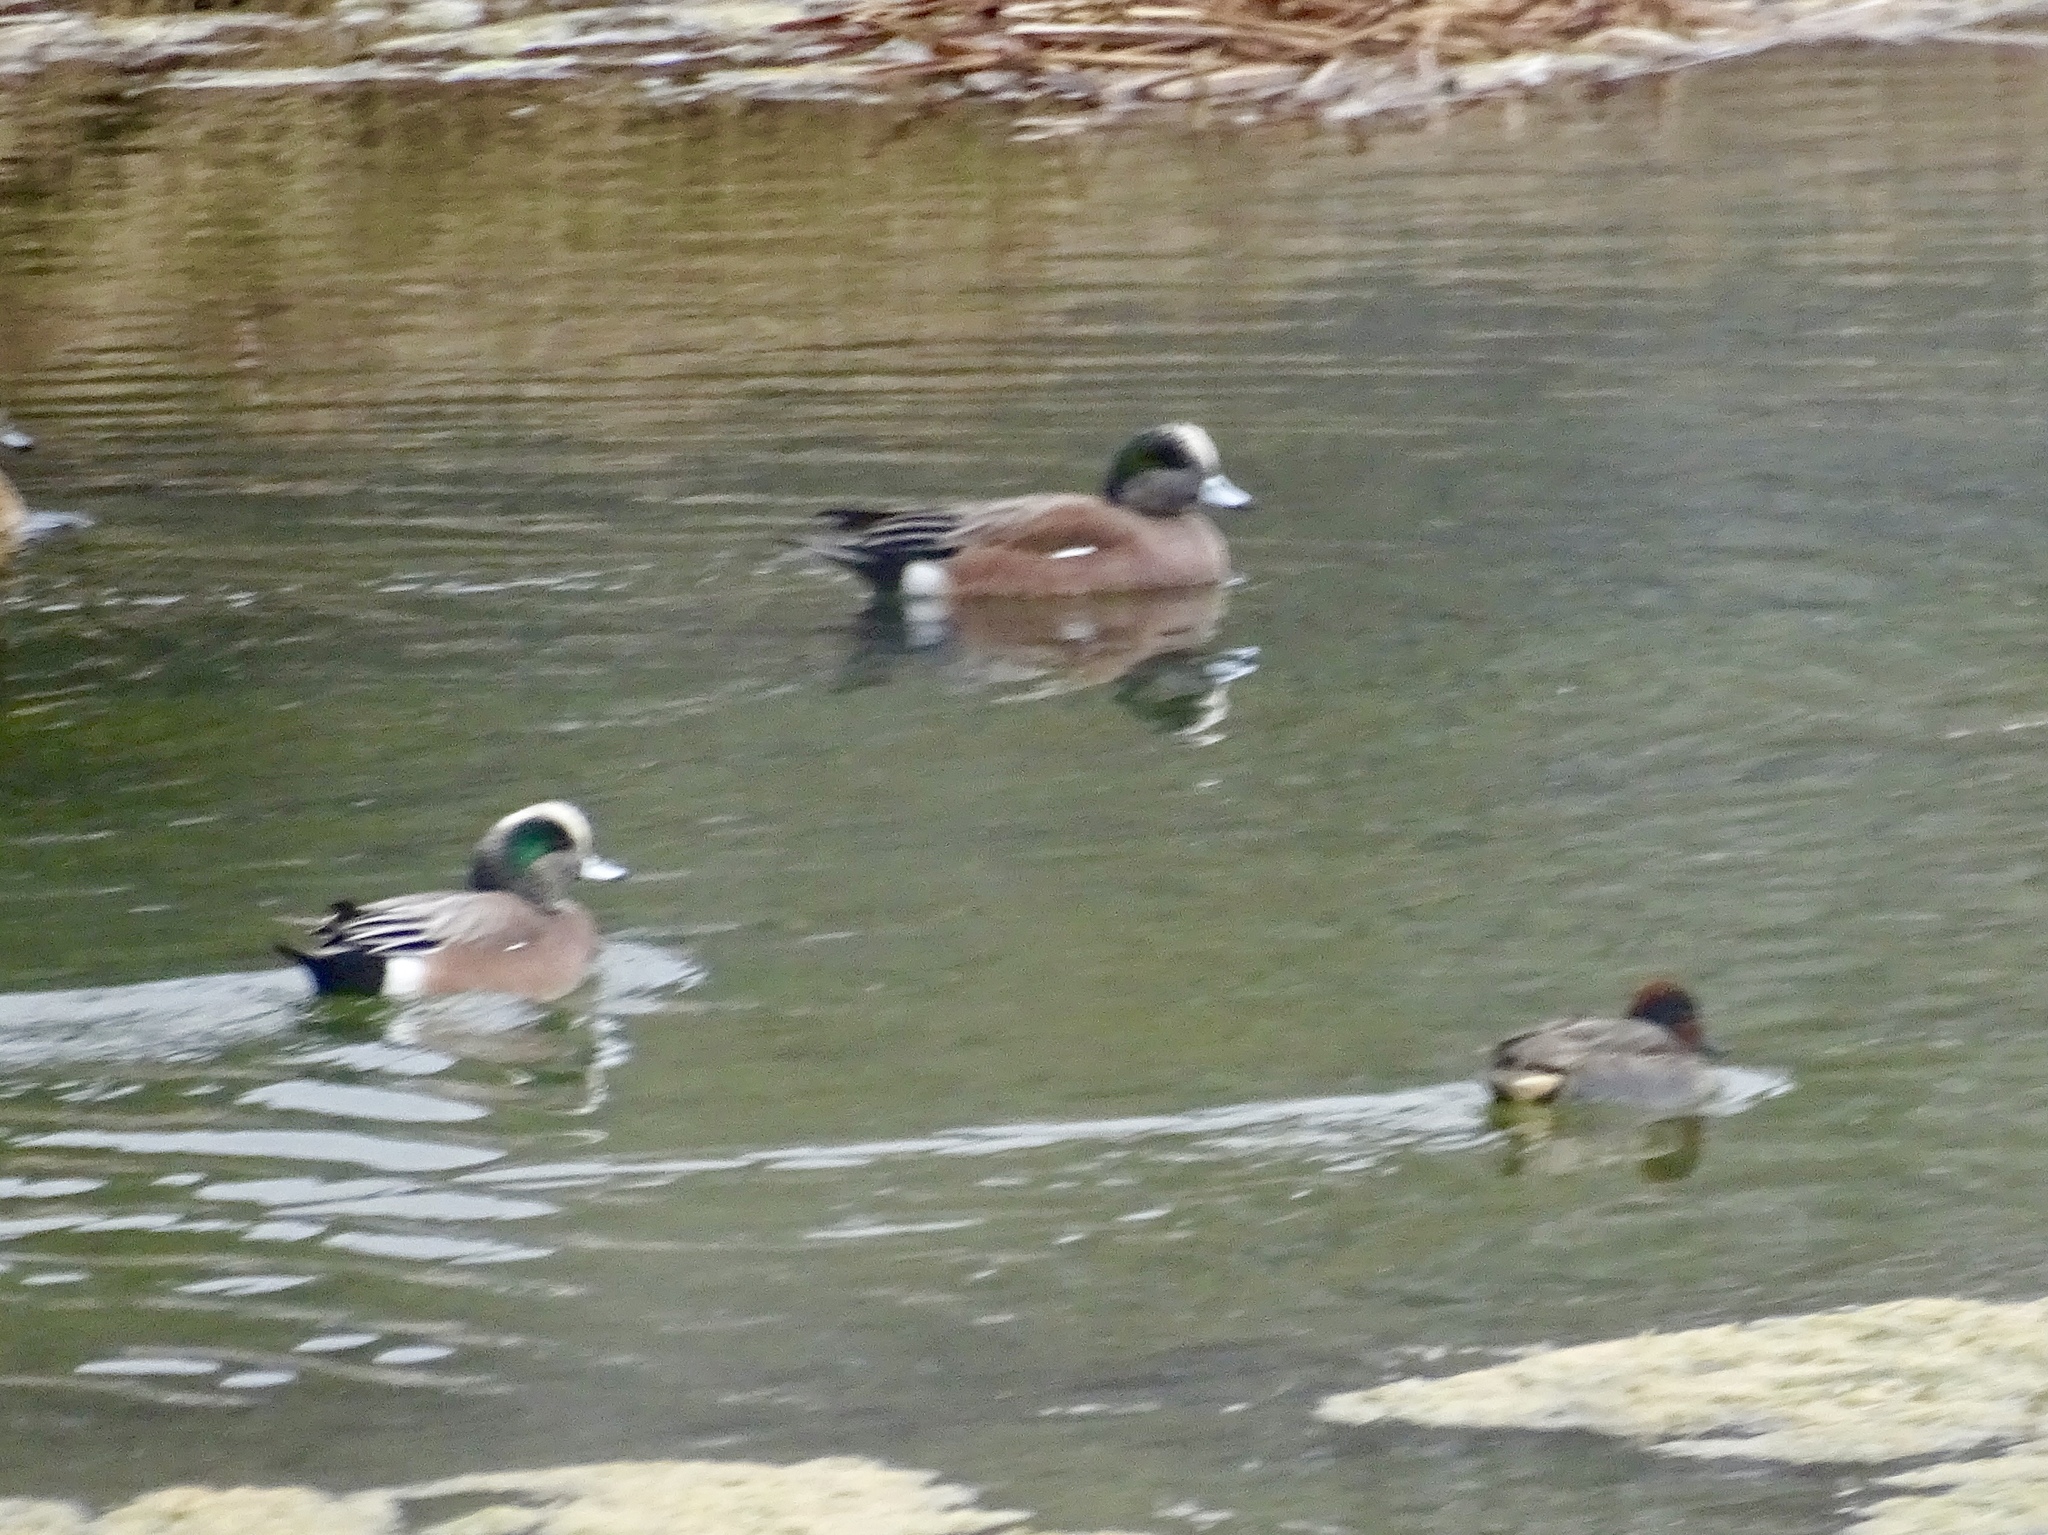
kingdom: Animalia
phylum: Chordata
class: Aves
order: Anseriformes
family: Anatidae
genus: Mareca
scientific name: Mareca americana
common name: American wigeon
